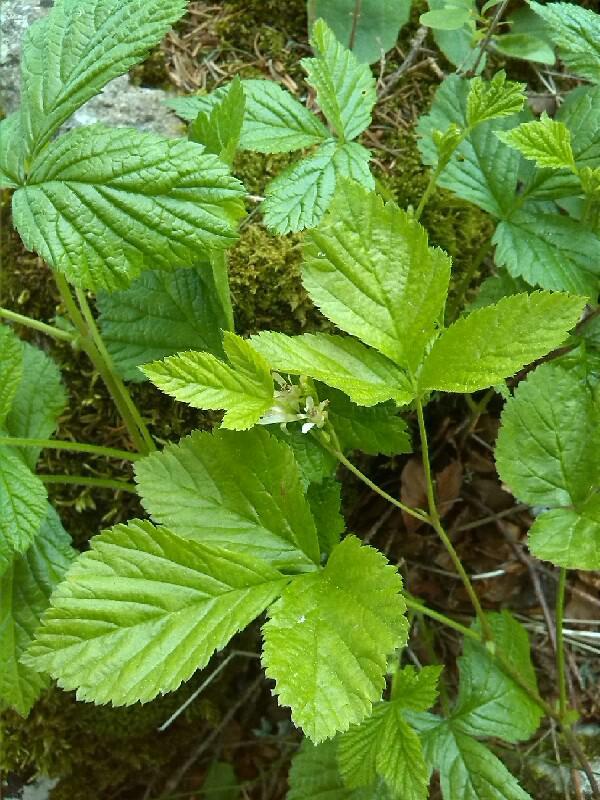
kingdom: Plantae
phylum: Tracheophyta
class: Magnoliopsida
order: Rosales
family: Rosaceae
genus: Rubus
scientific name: Rubus saxatilis
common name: Stone bramble
